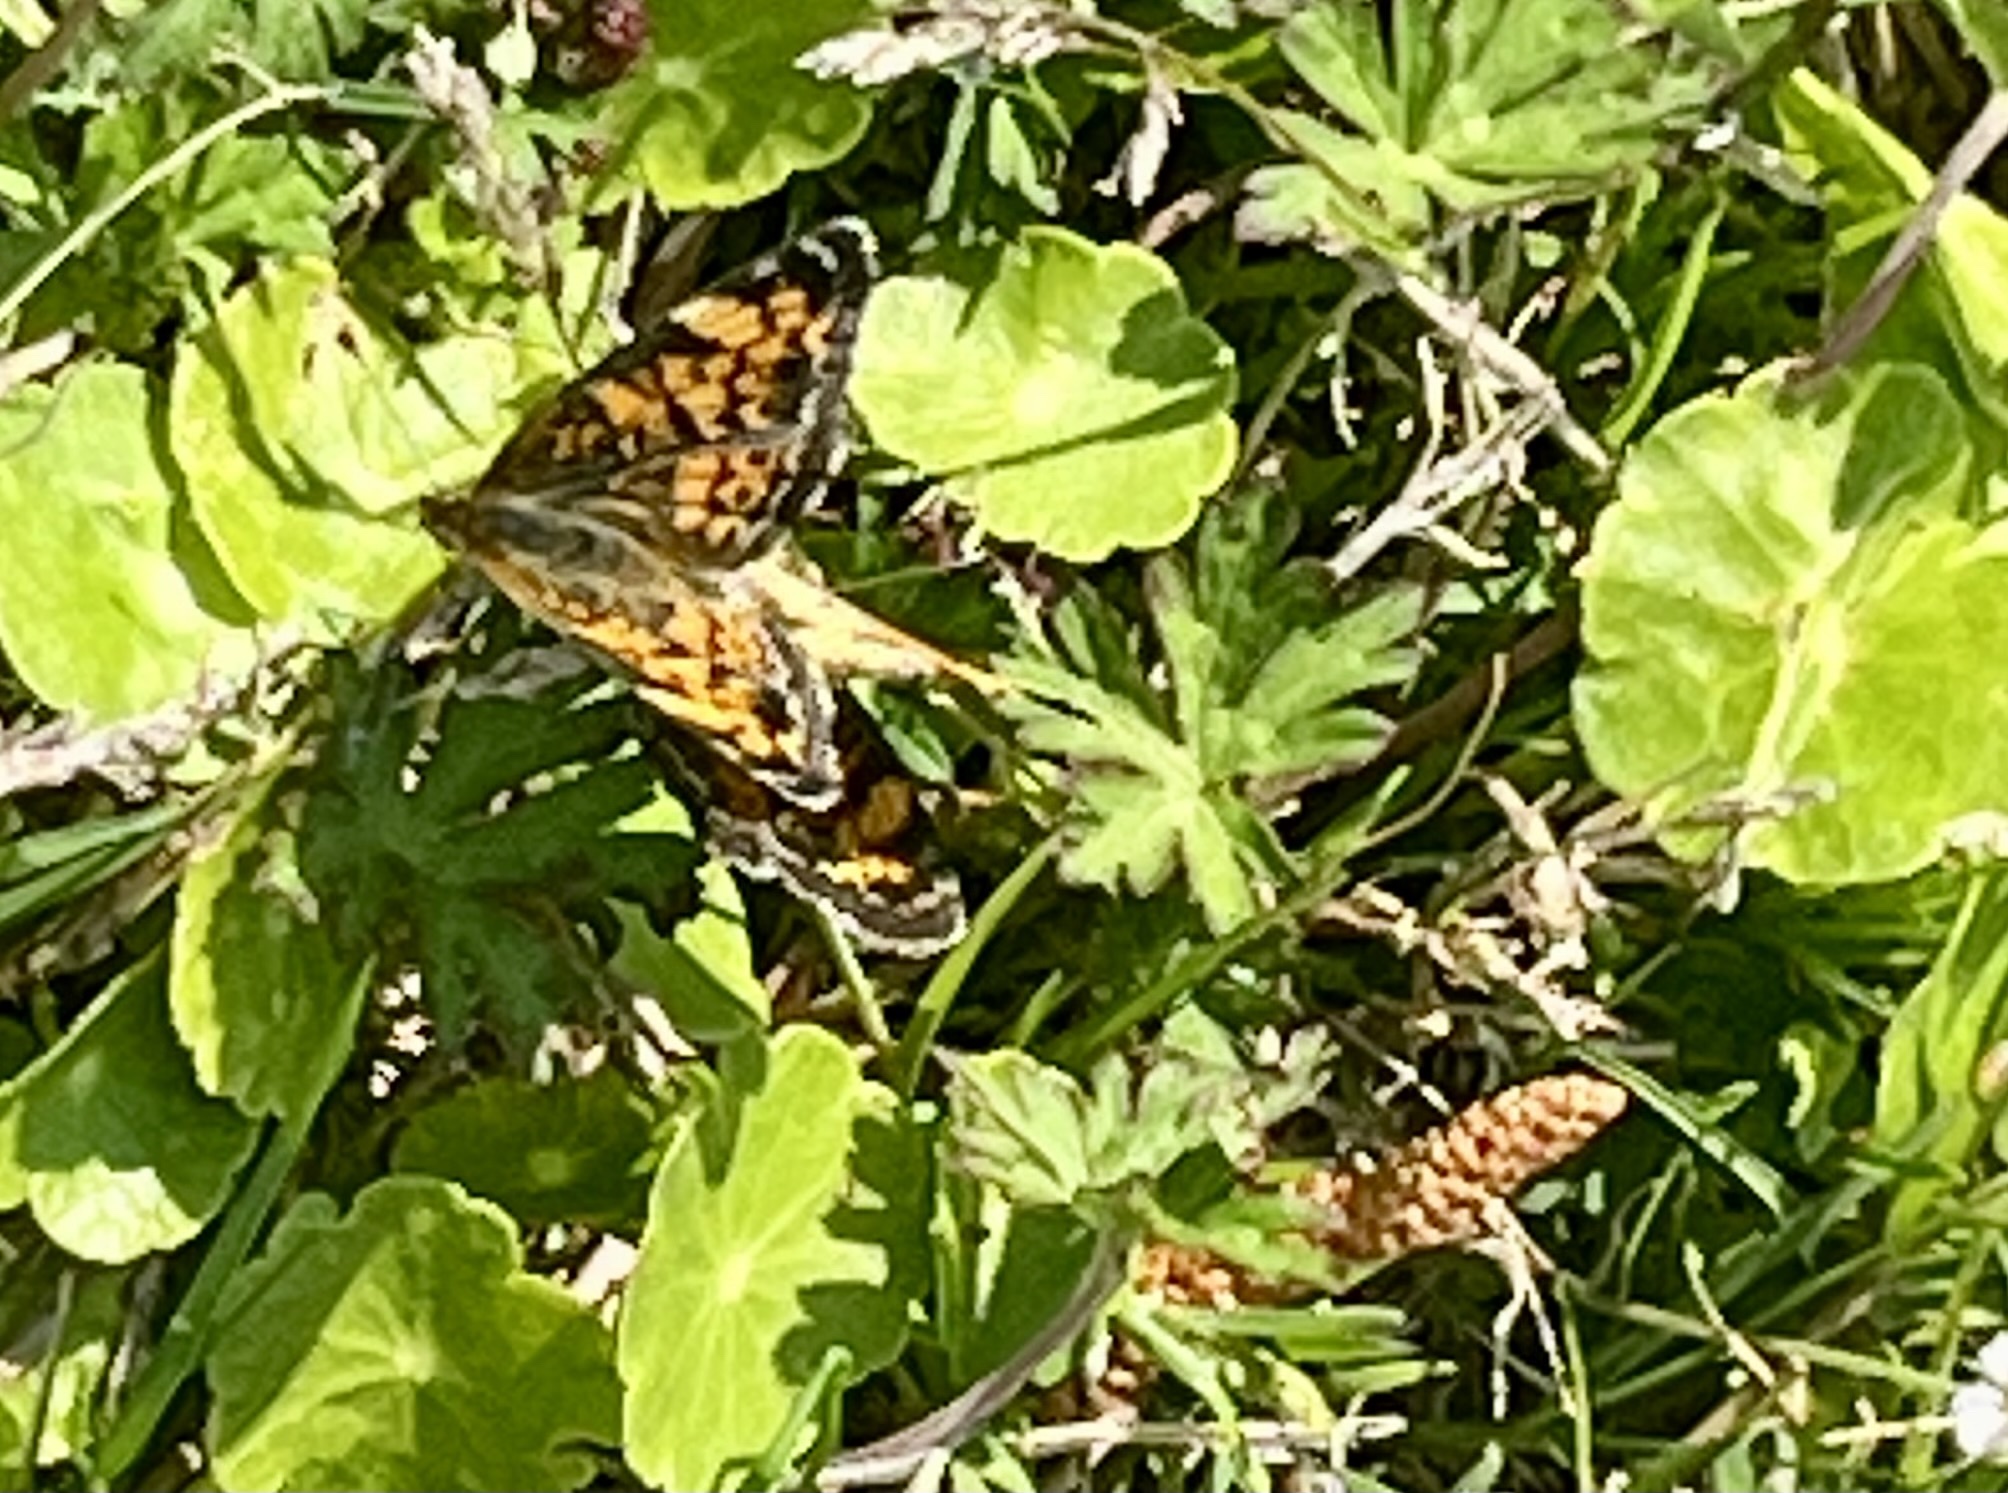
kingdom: Animalia
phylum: Arthropoda
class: Insecta
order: Lepidoptera
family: Nymphalidae
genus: Phyciodes
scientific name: Phyciodes tharos
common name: Pearl crescent
